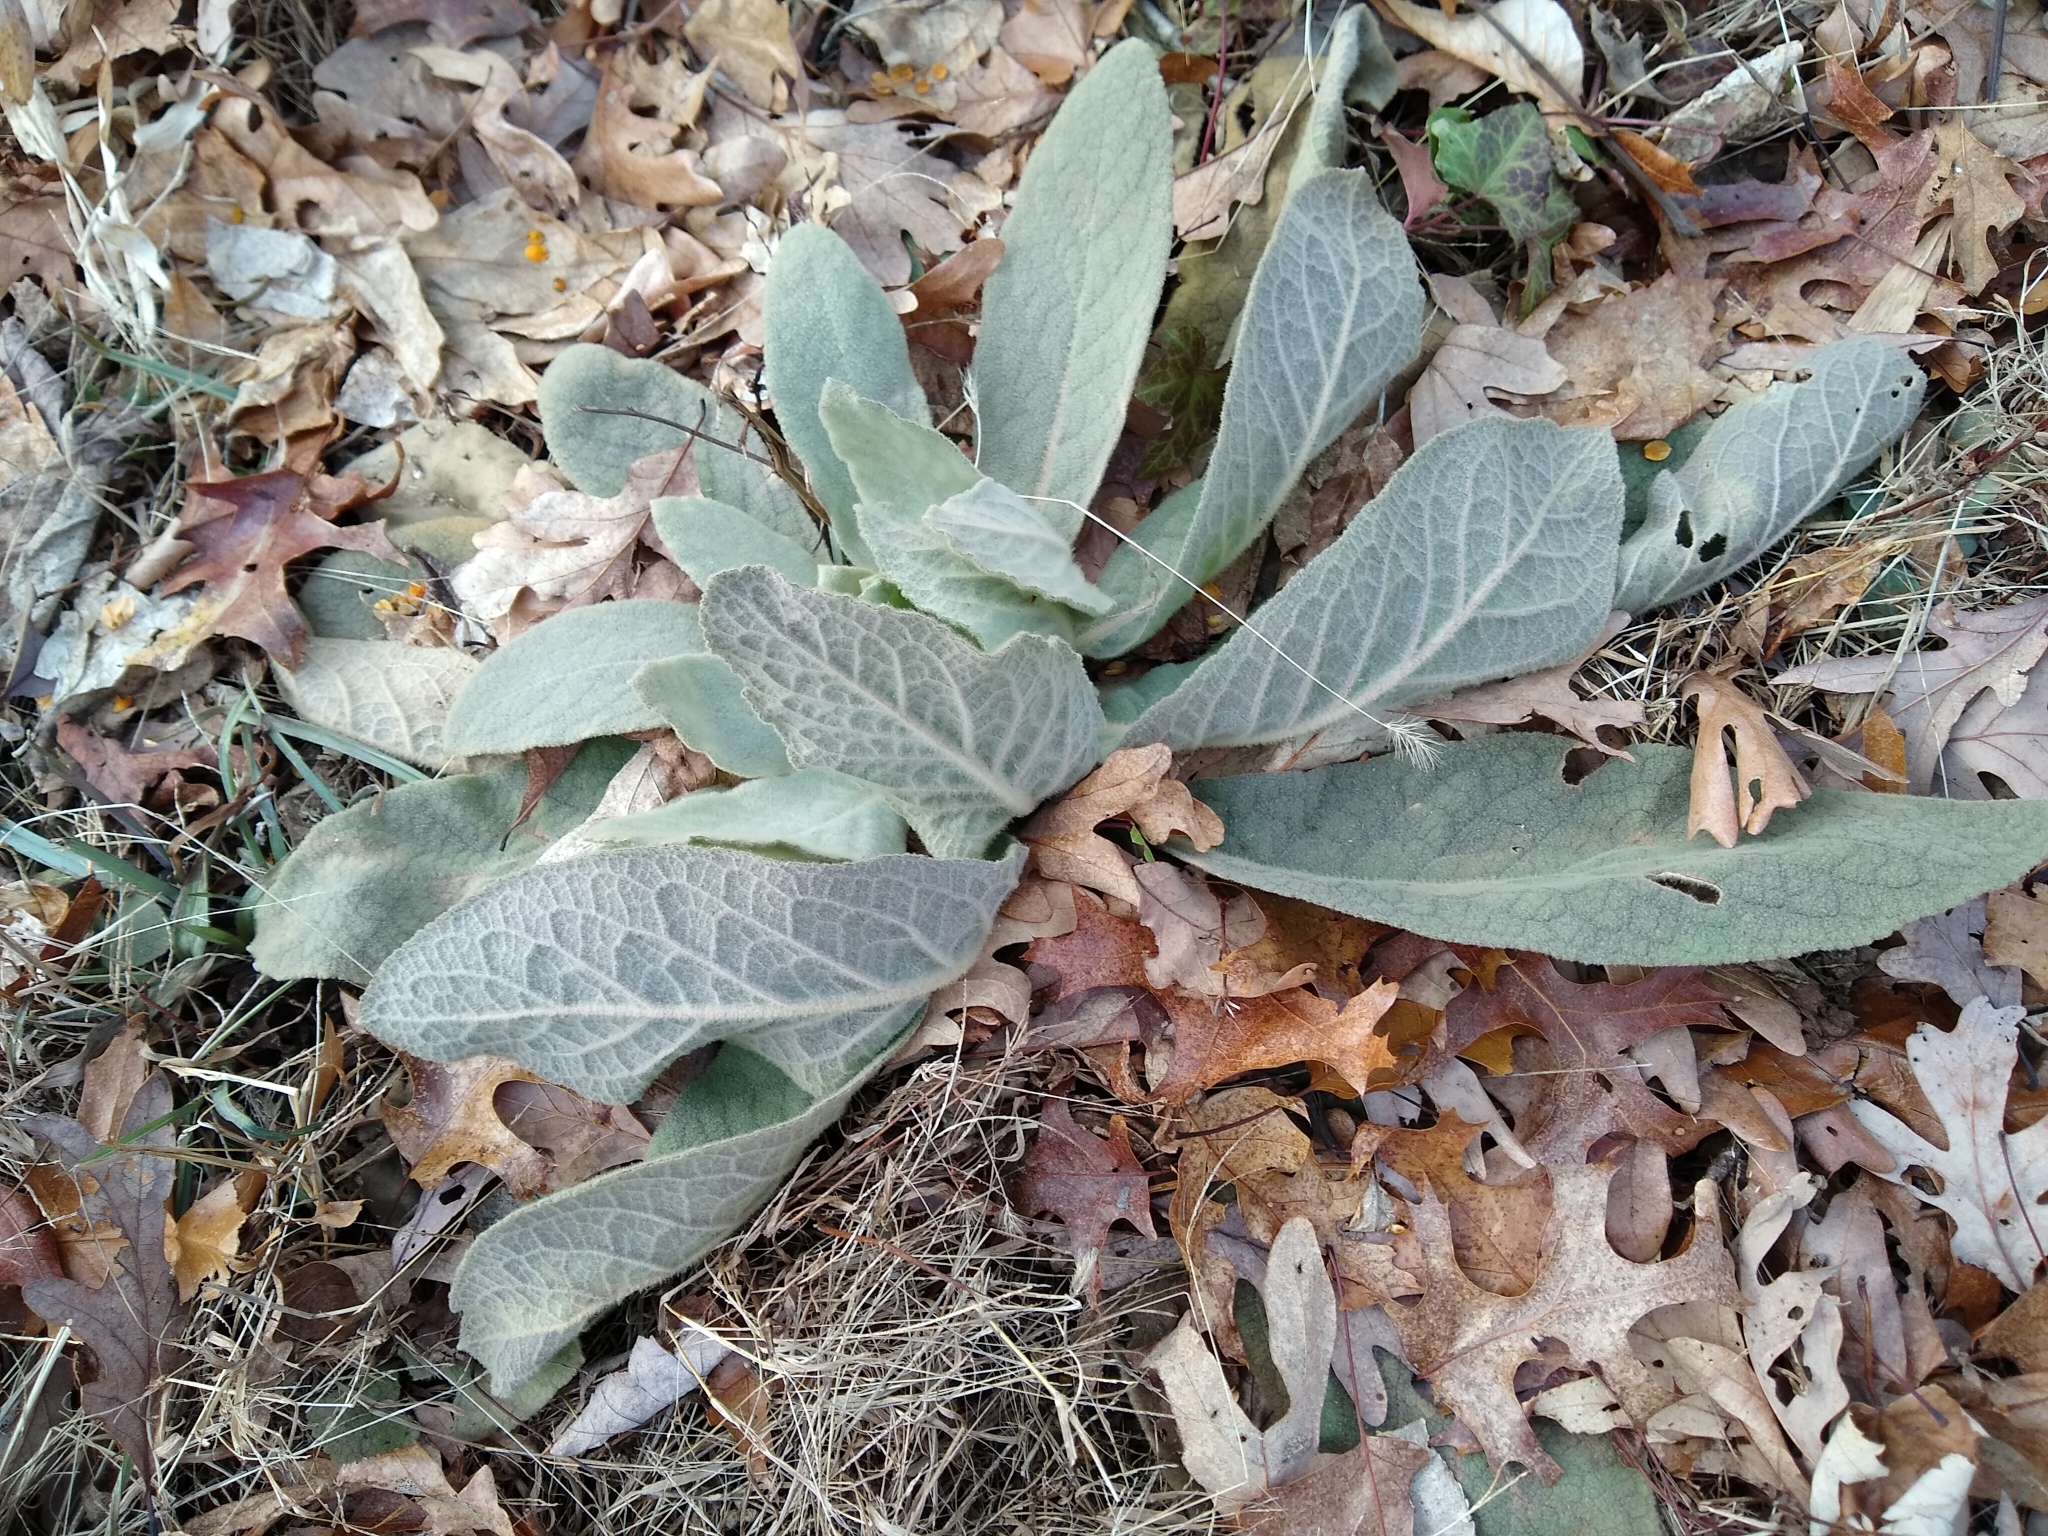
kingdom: Plantae
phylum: Tracheophyta
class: Magnoliopsida
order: Lamiales
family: Scrophulariaceae
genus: Verbascum
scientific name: Verbascum thapsus
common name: Common mullein
